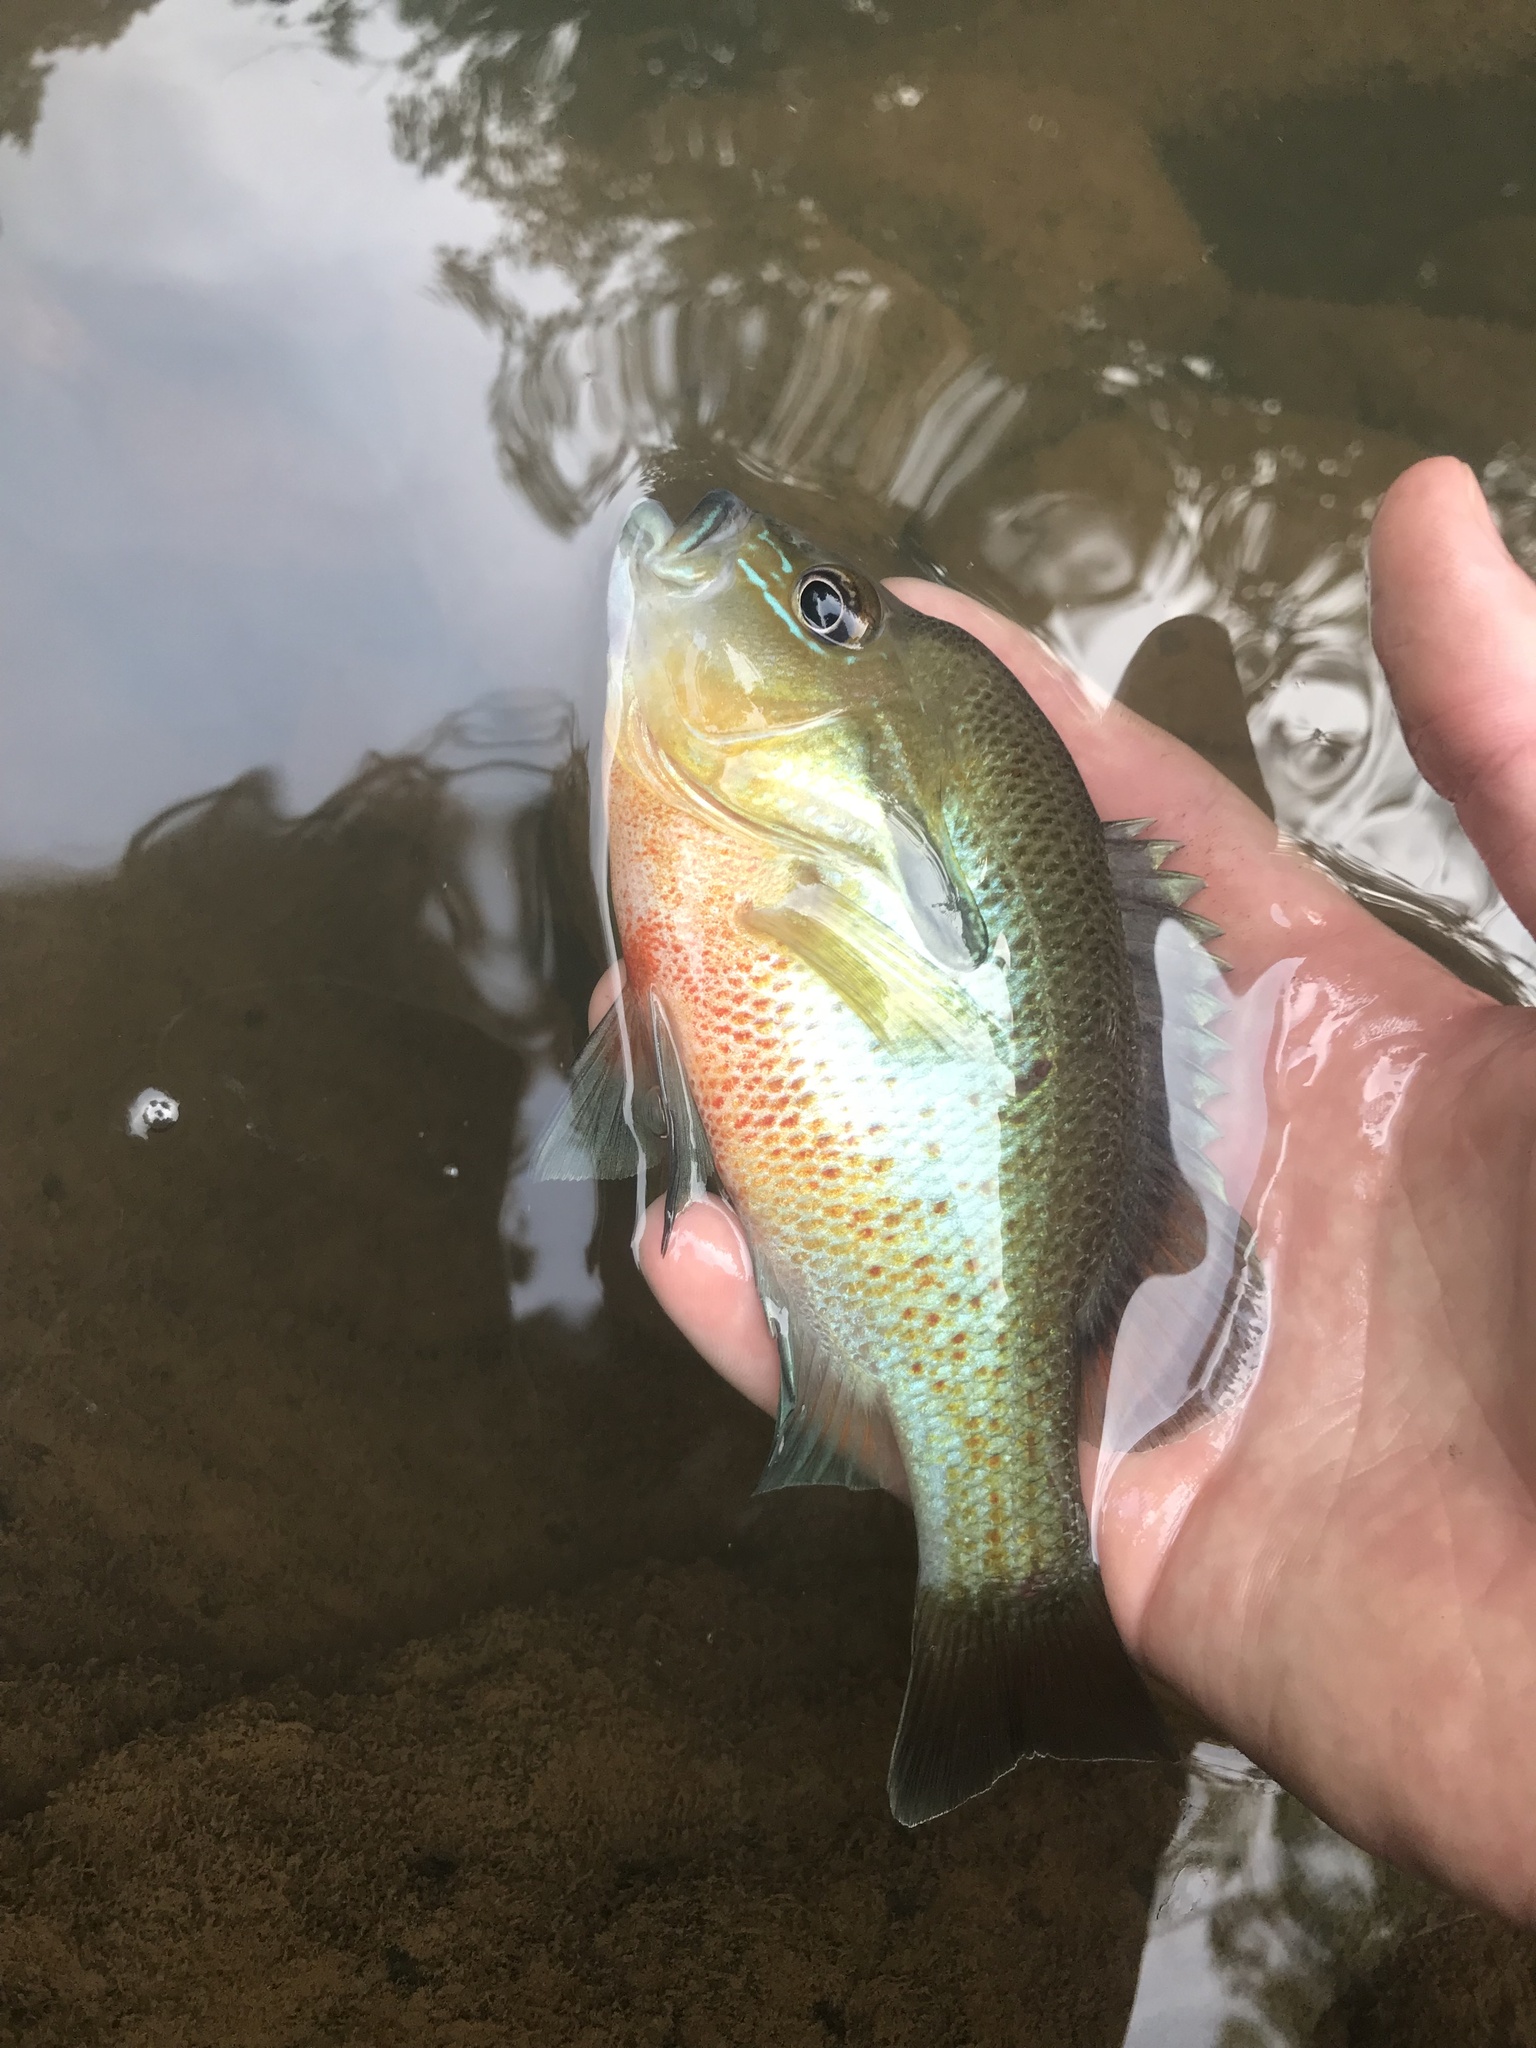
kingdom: Animalia
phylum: Chordata
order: Perciformes
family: Centrarchidae
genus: Lepomis
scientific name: Lepomis auritus
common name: Redbreast sunfish
